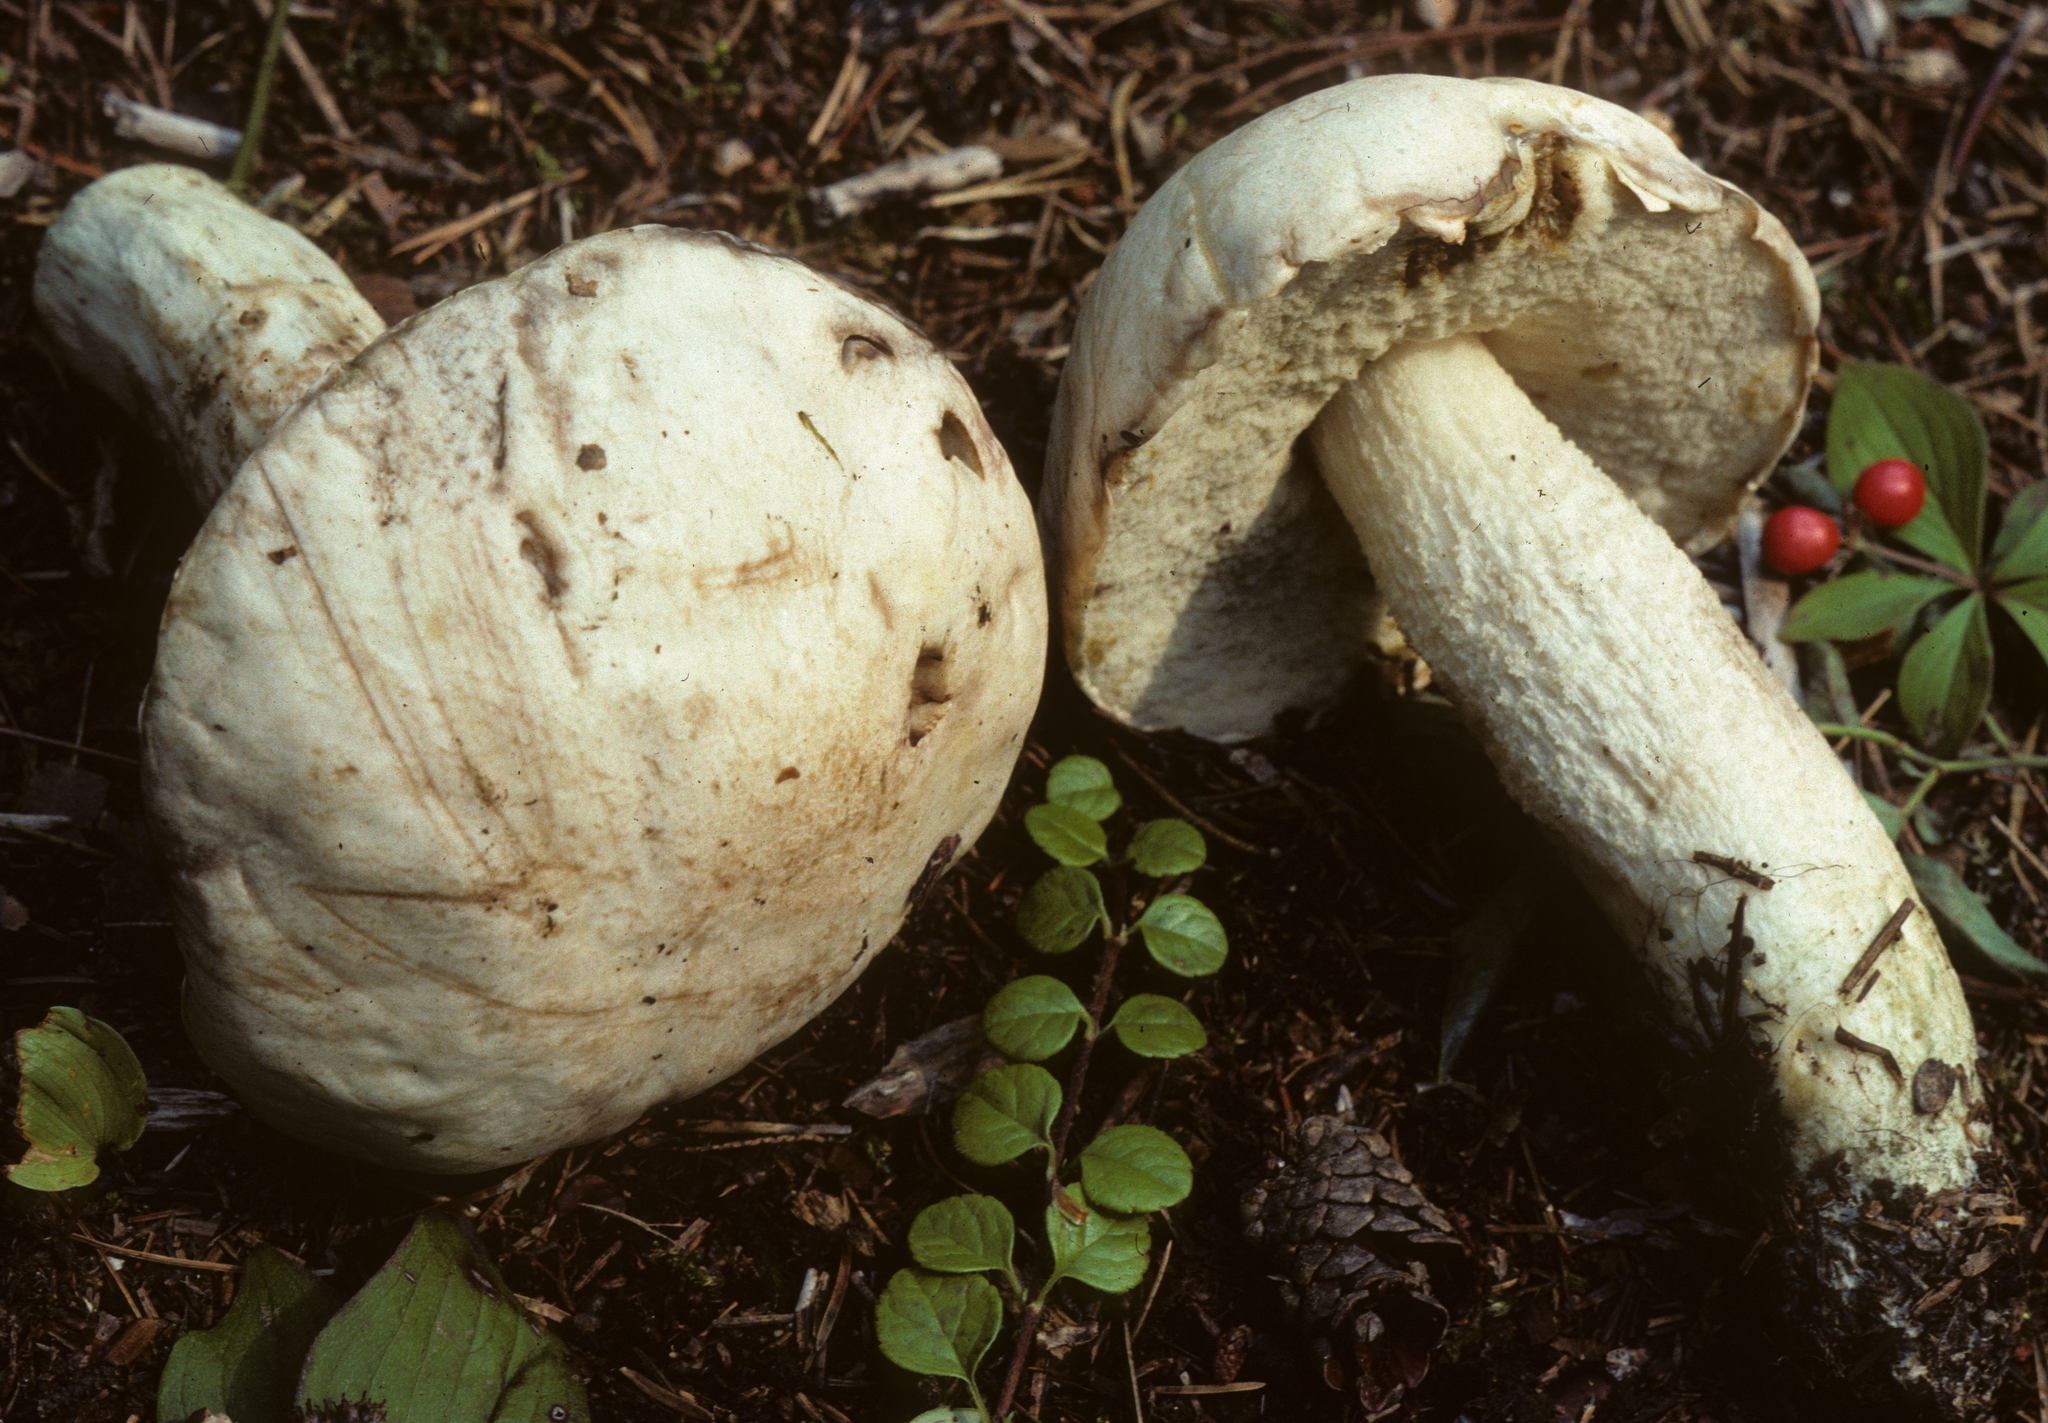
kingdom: Fungi
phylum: Basidiomycota
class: Agaricomycetes
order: Boletales
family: Boletaceae
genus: Leccinum
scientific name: Leccinum insolens
